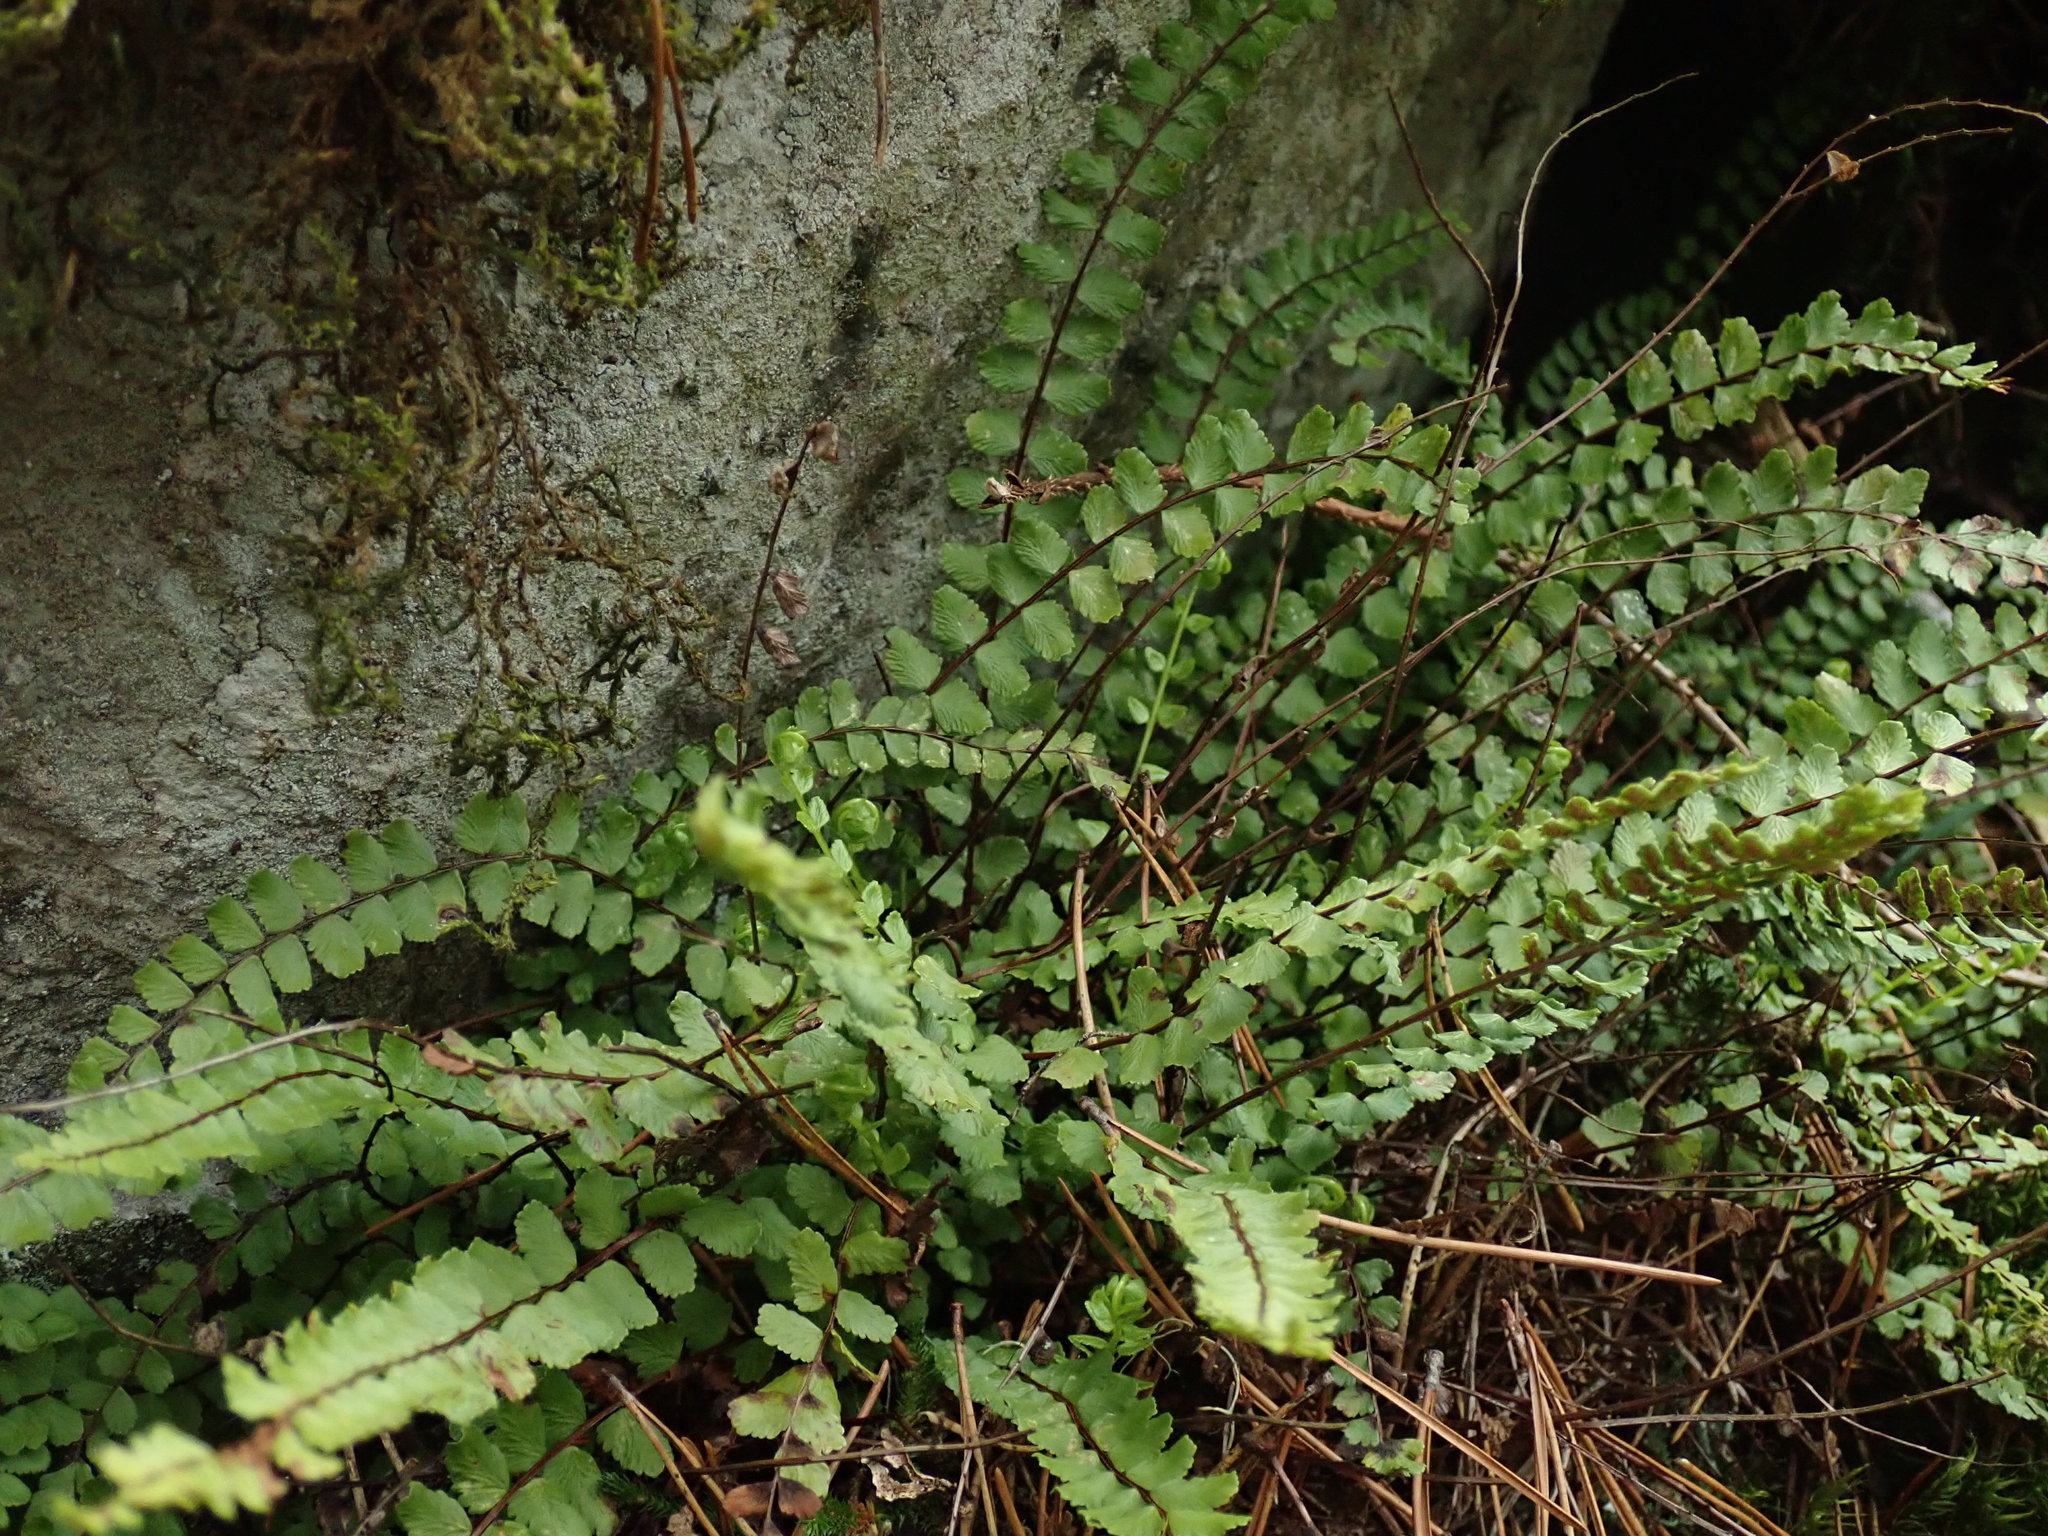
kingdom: Plantae
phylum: Tracheophyta
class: Polypodiopsida
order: Polypodiales
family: Aspleniaceae
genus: Asplenium
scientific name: Asplenium trichomanes
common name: Maidenhair spleenwort
